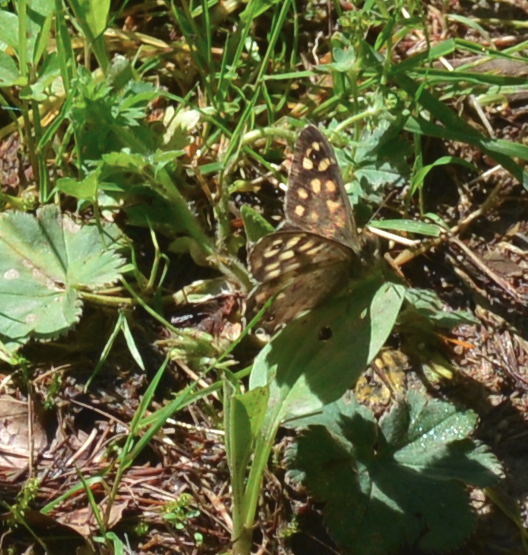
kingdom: Animalia
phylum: Arthropoda
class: Insecta
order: Lepidoptera
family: Nymphalidae
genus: Pararge
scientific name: Pararge aegeria
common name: Speckled wood
